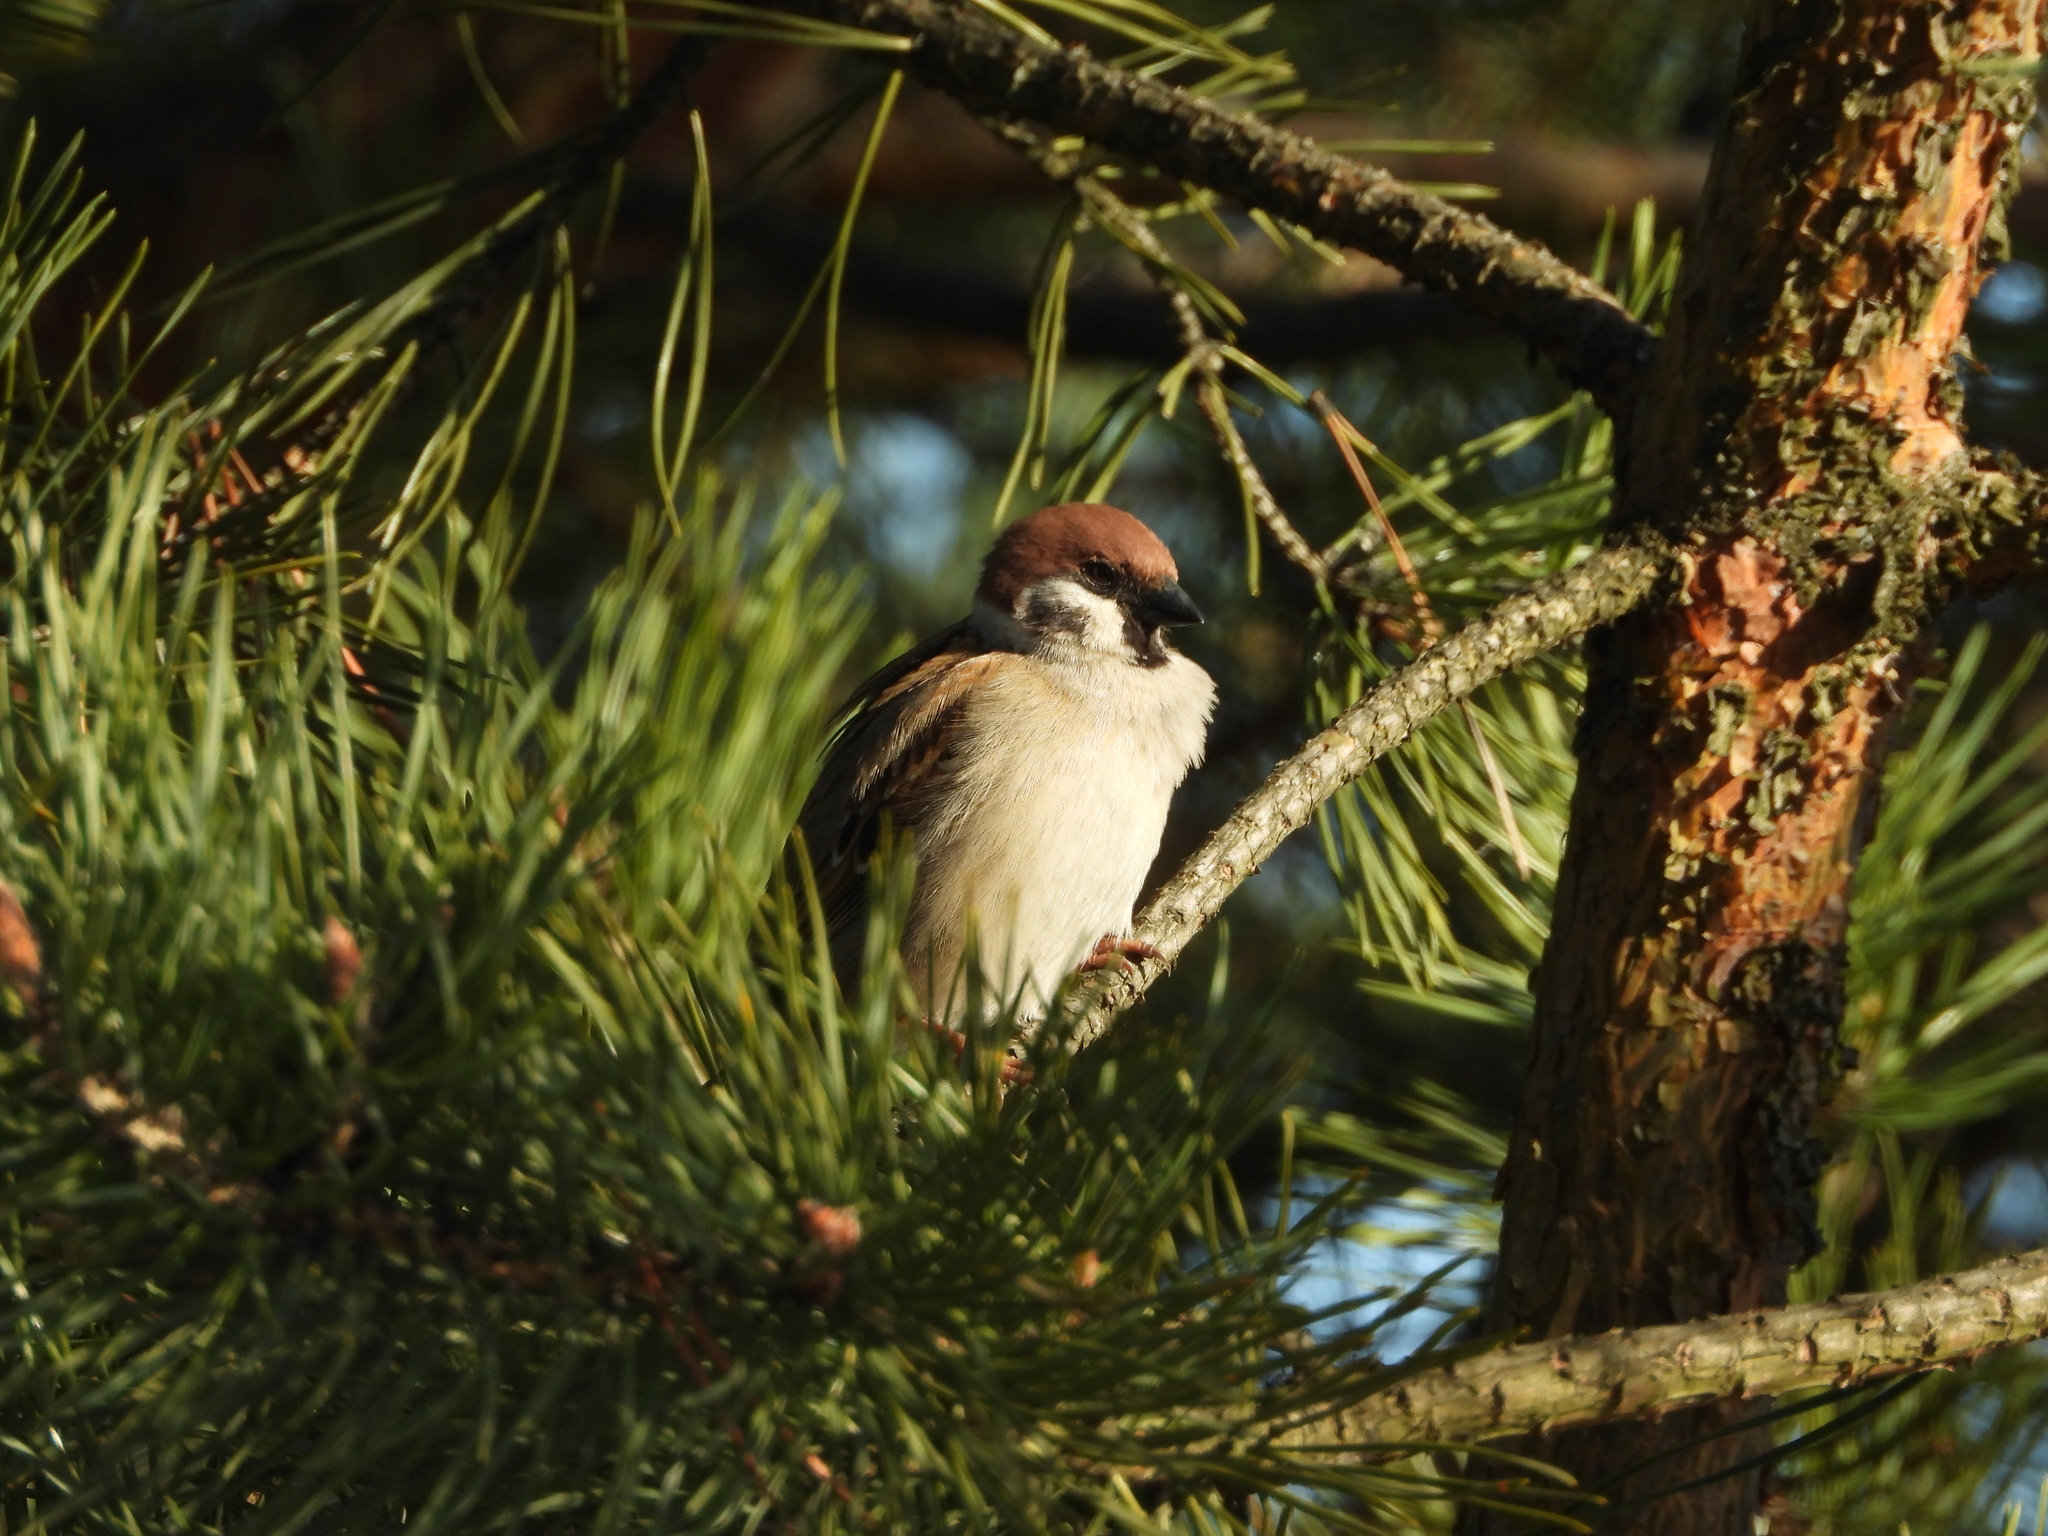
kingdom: Animalia
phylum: Chordata
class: Aves
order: Passeriformes
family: Passeridae
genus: Passer
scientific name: Passer montanus
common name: Eurasian tree sparrow
